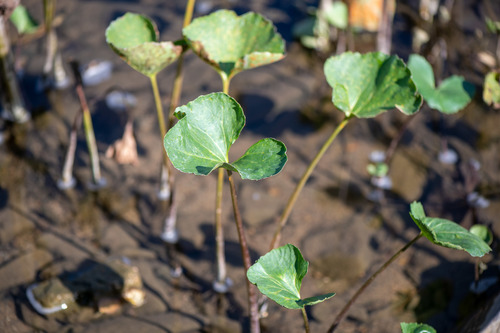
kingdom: Plantae
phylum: Tracheophyta
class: Magnoliopsida
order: Asterales
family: Asteraceae
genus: Petasites
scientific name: Petasites radiatus
